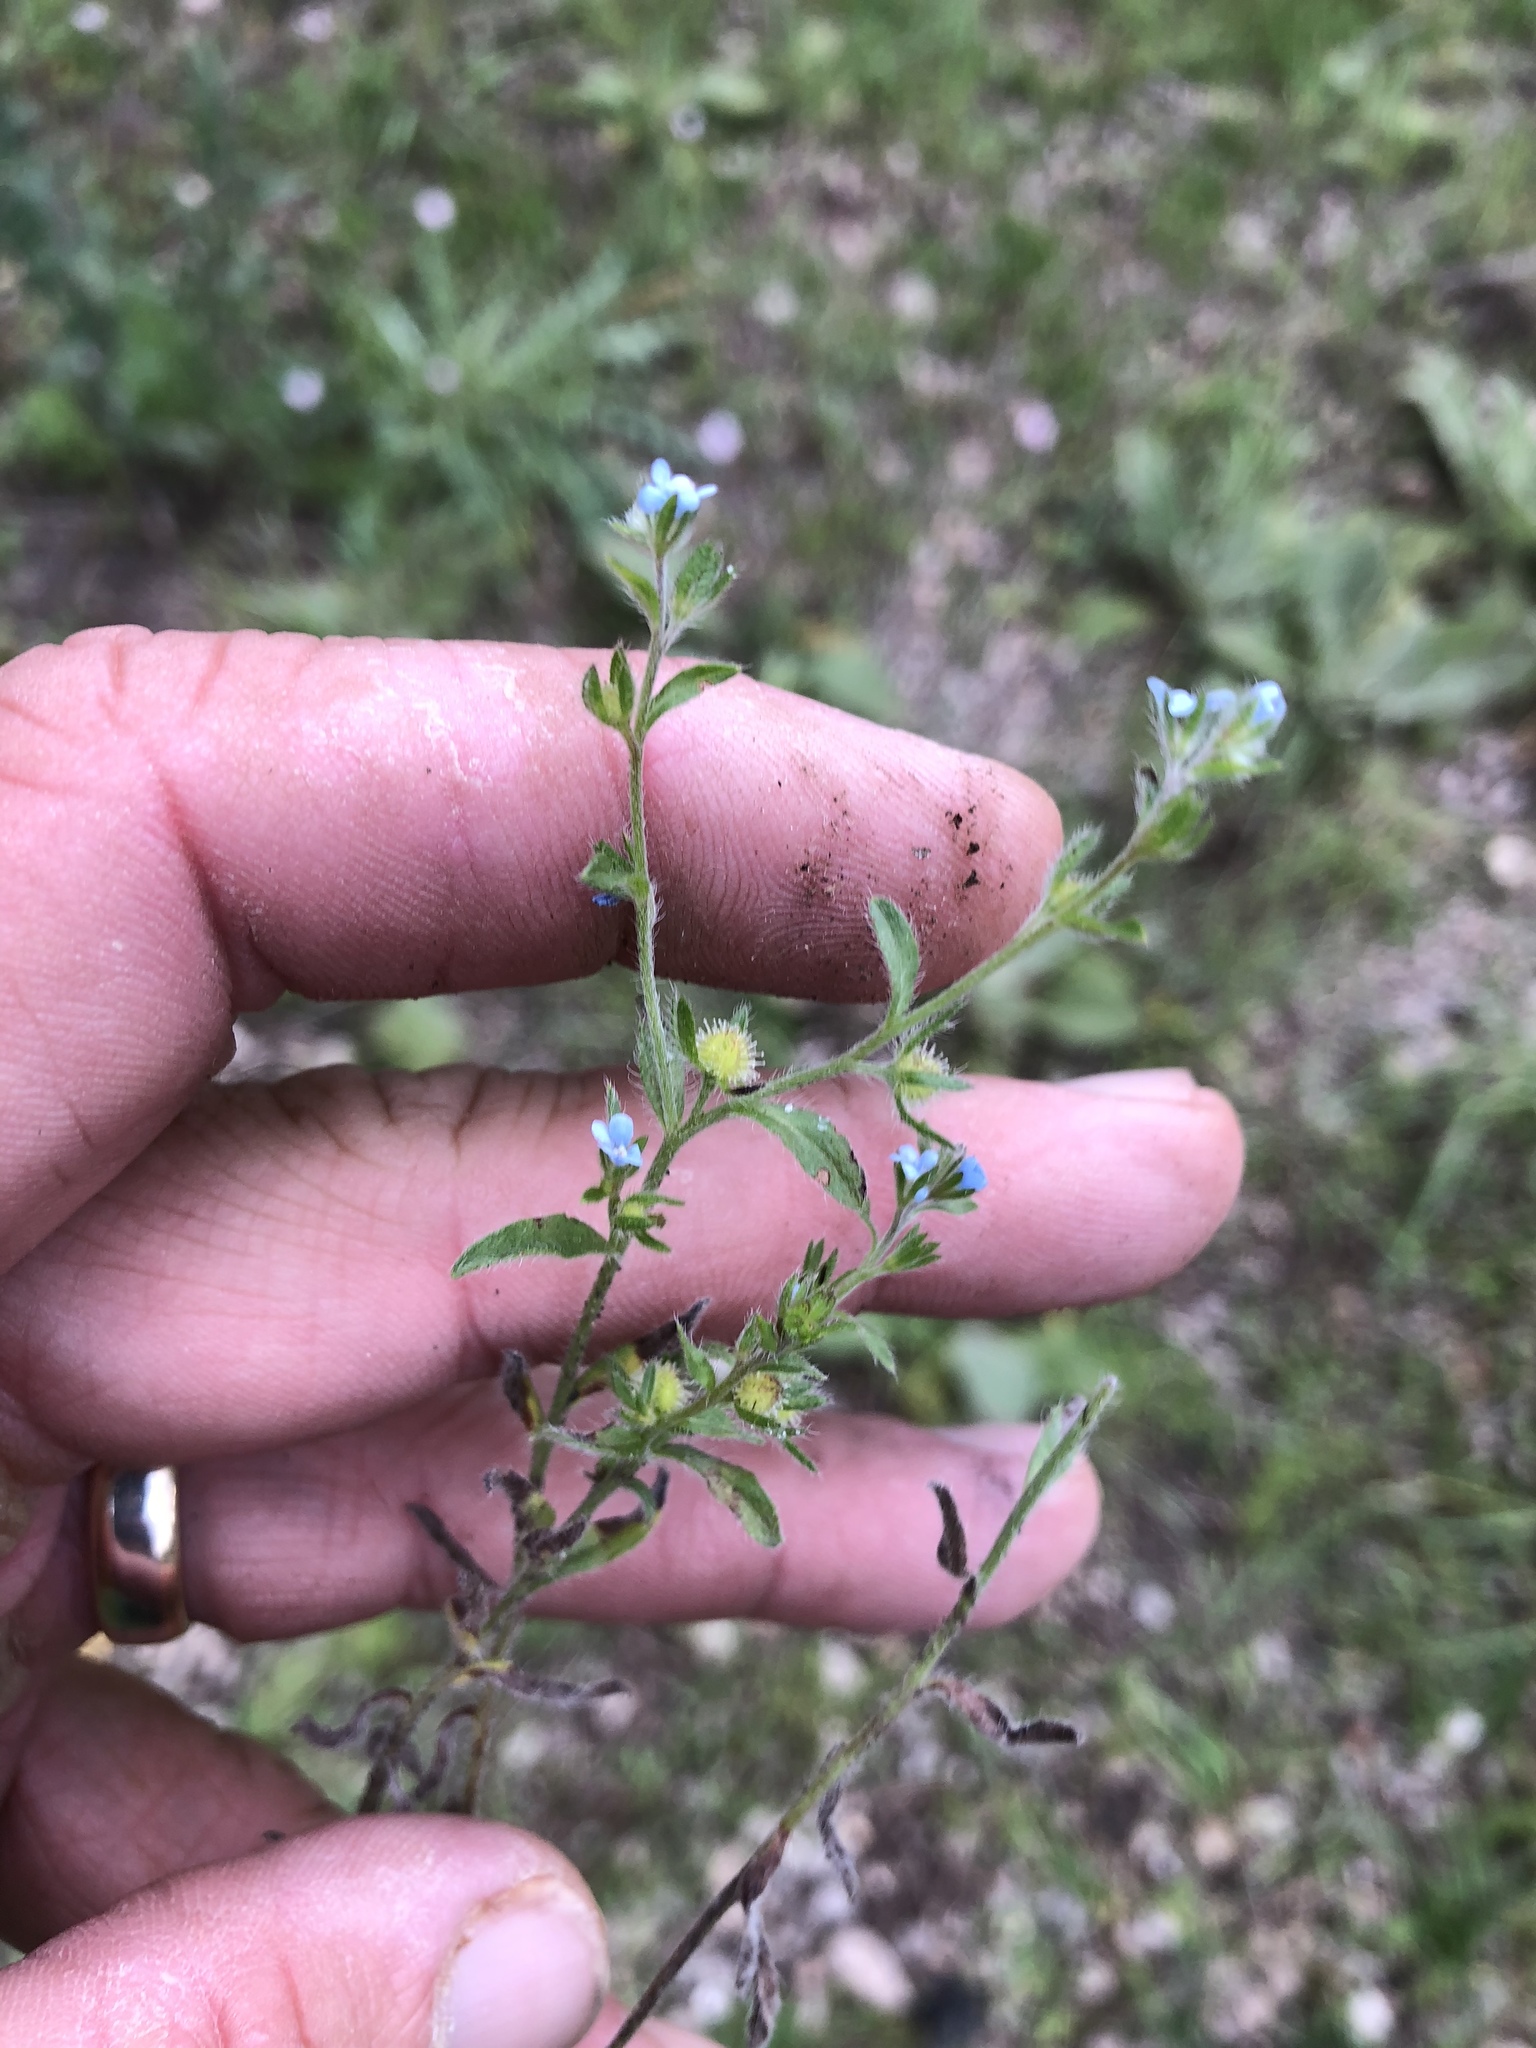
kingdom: Plantae
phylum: Tracheophyta
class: Magnoliopsida
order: Boraginales
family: Boraginaceae
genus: Lappula
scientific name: Lappula squarrosa
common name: European stickseed
